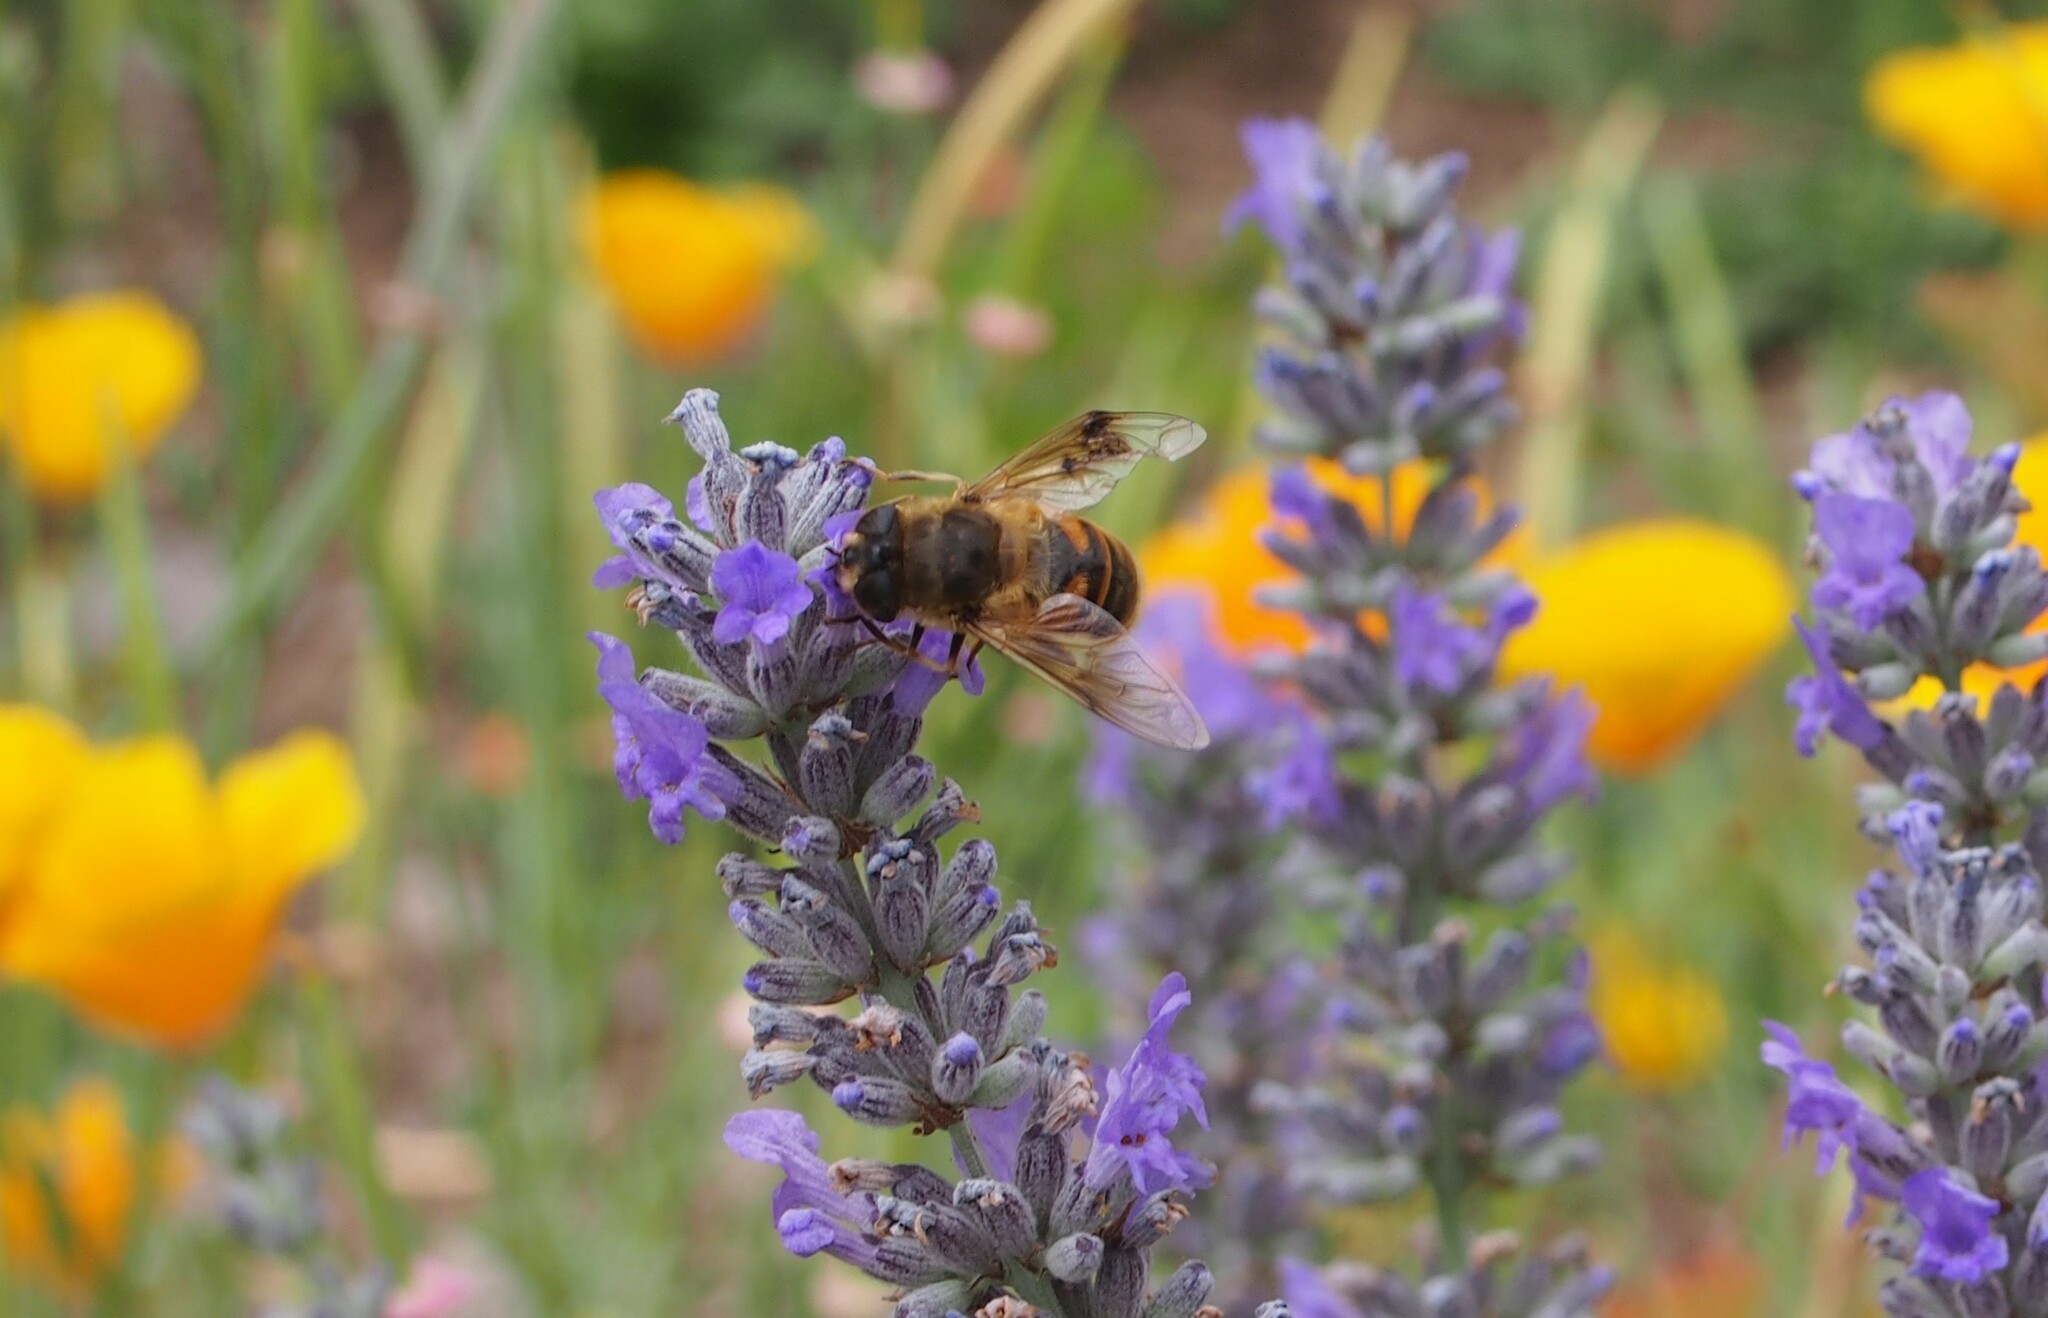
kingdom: Animalia
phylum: Arthropoda
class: Insecta
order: Diptera
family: Syrphidae
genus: Eristalis
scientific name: Eristalis tenax
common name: Drone fly
